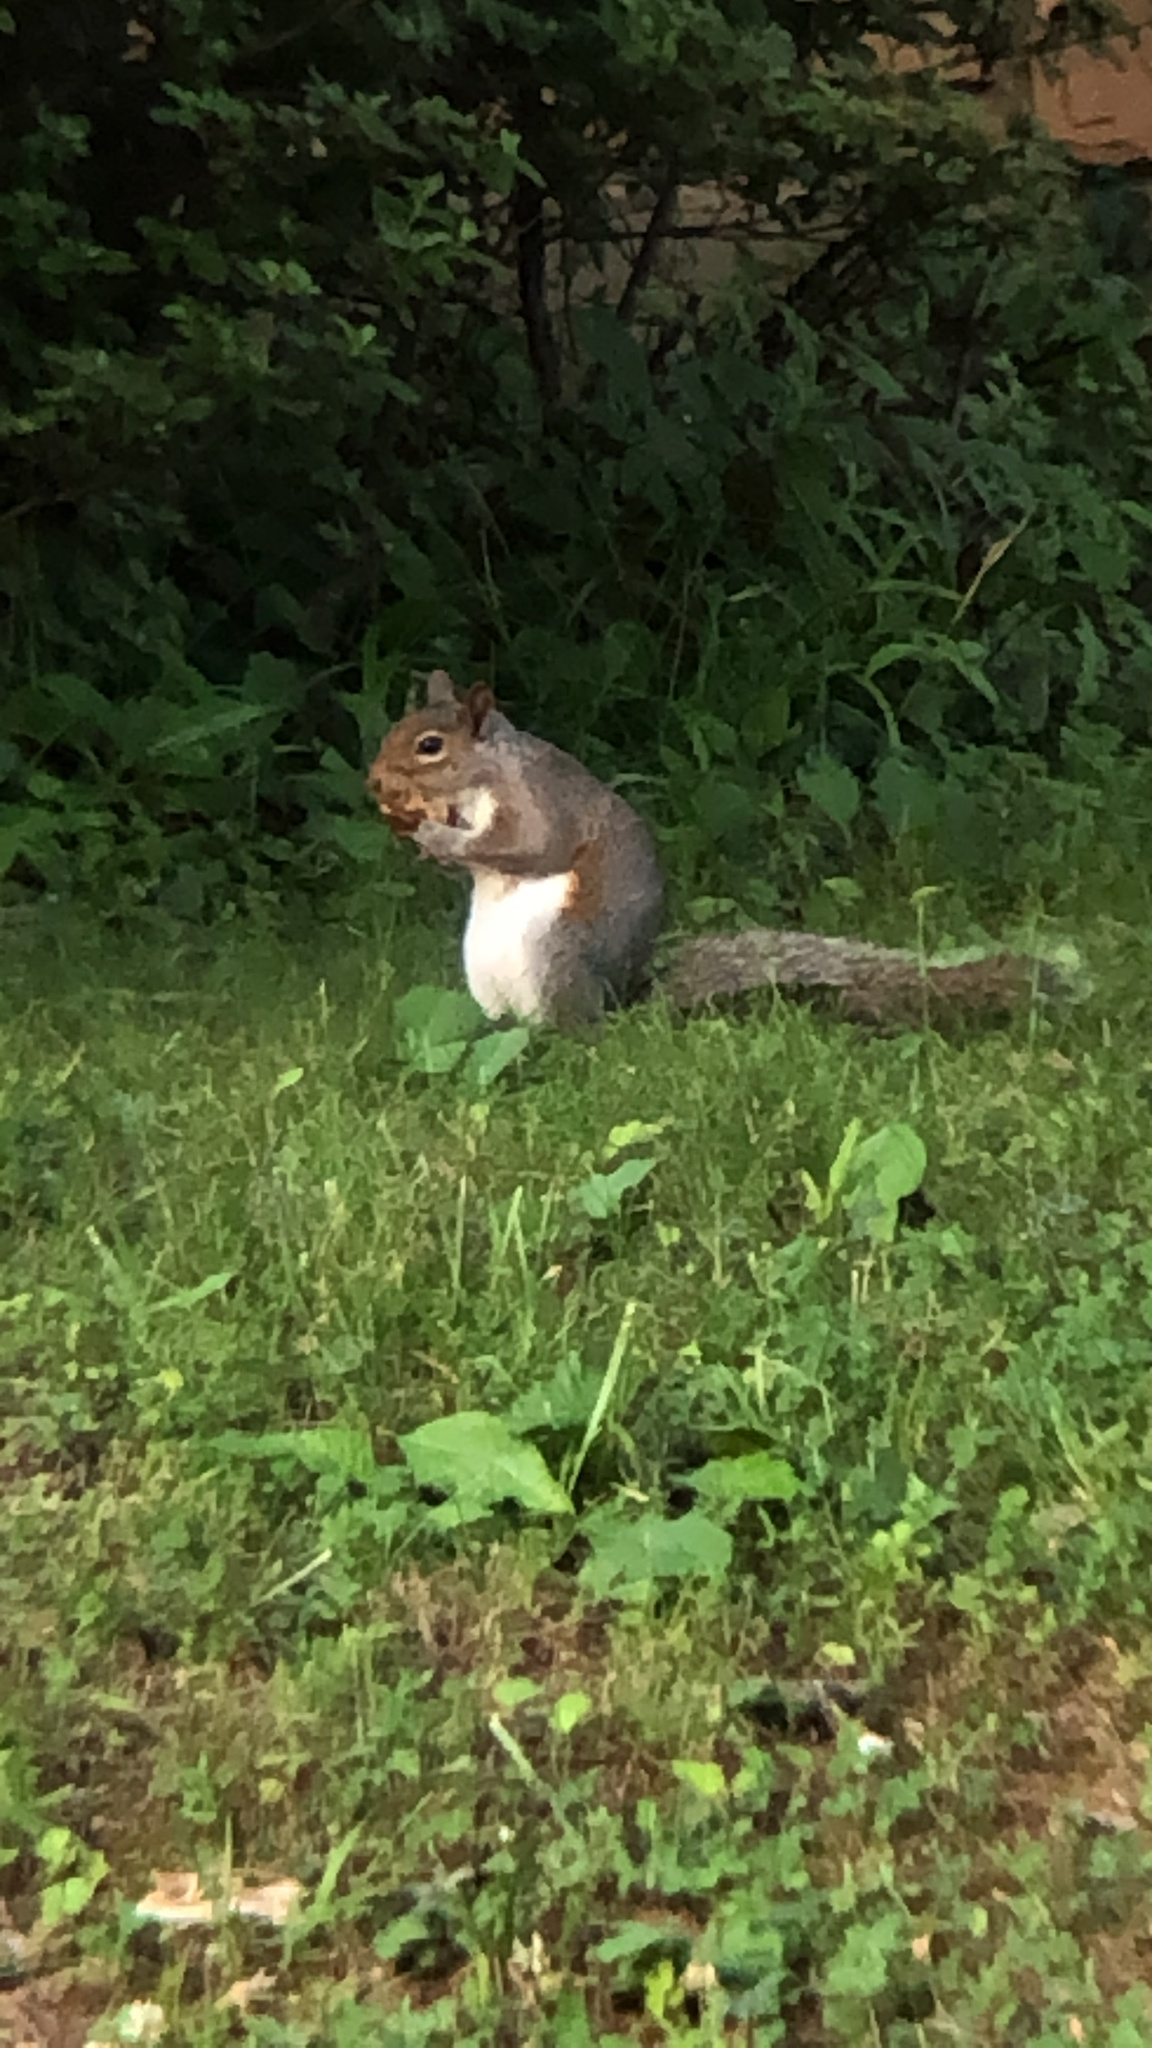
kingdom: Animalia
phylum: Chordata
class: Mammalia
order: Rodentia
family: Sciuridae
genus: Sciurus
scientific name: Sciurus carolinensis
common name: Eastern gray squirrel
